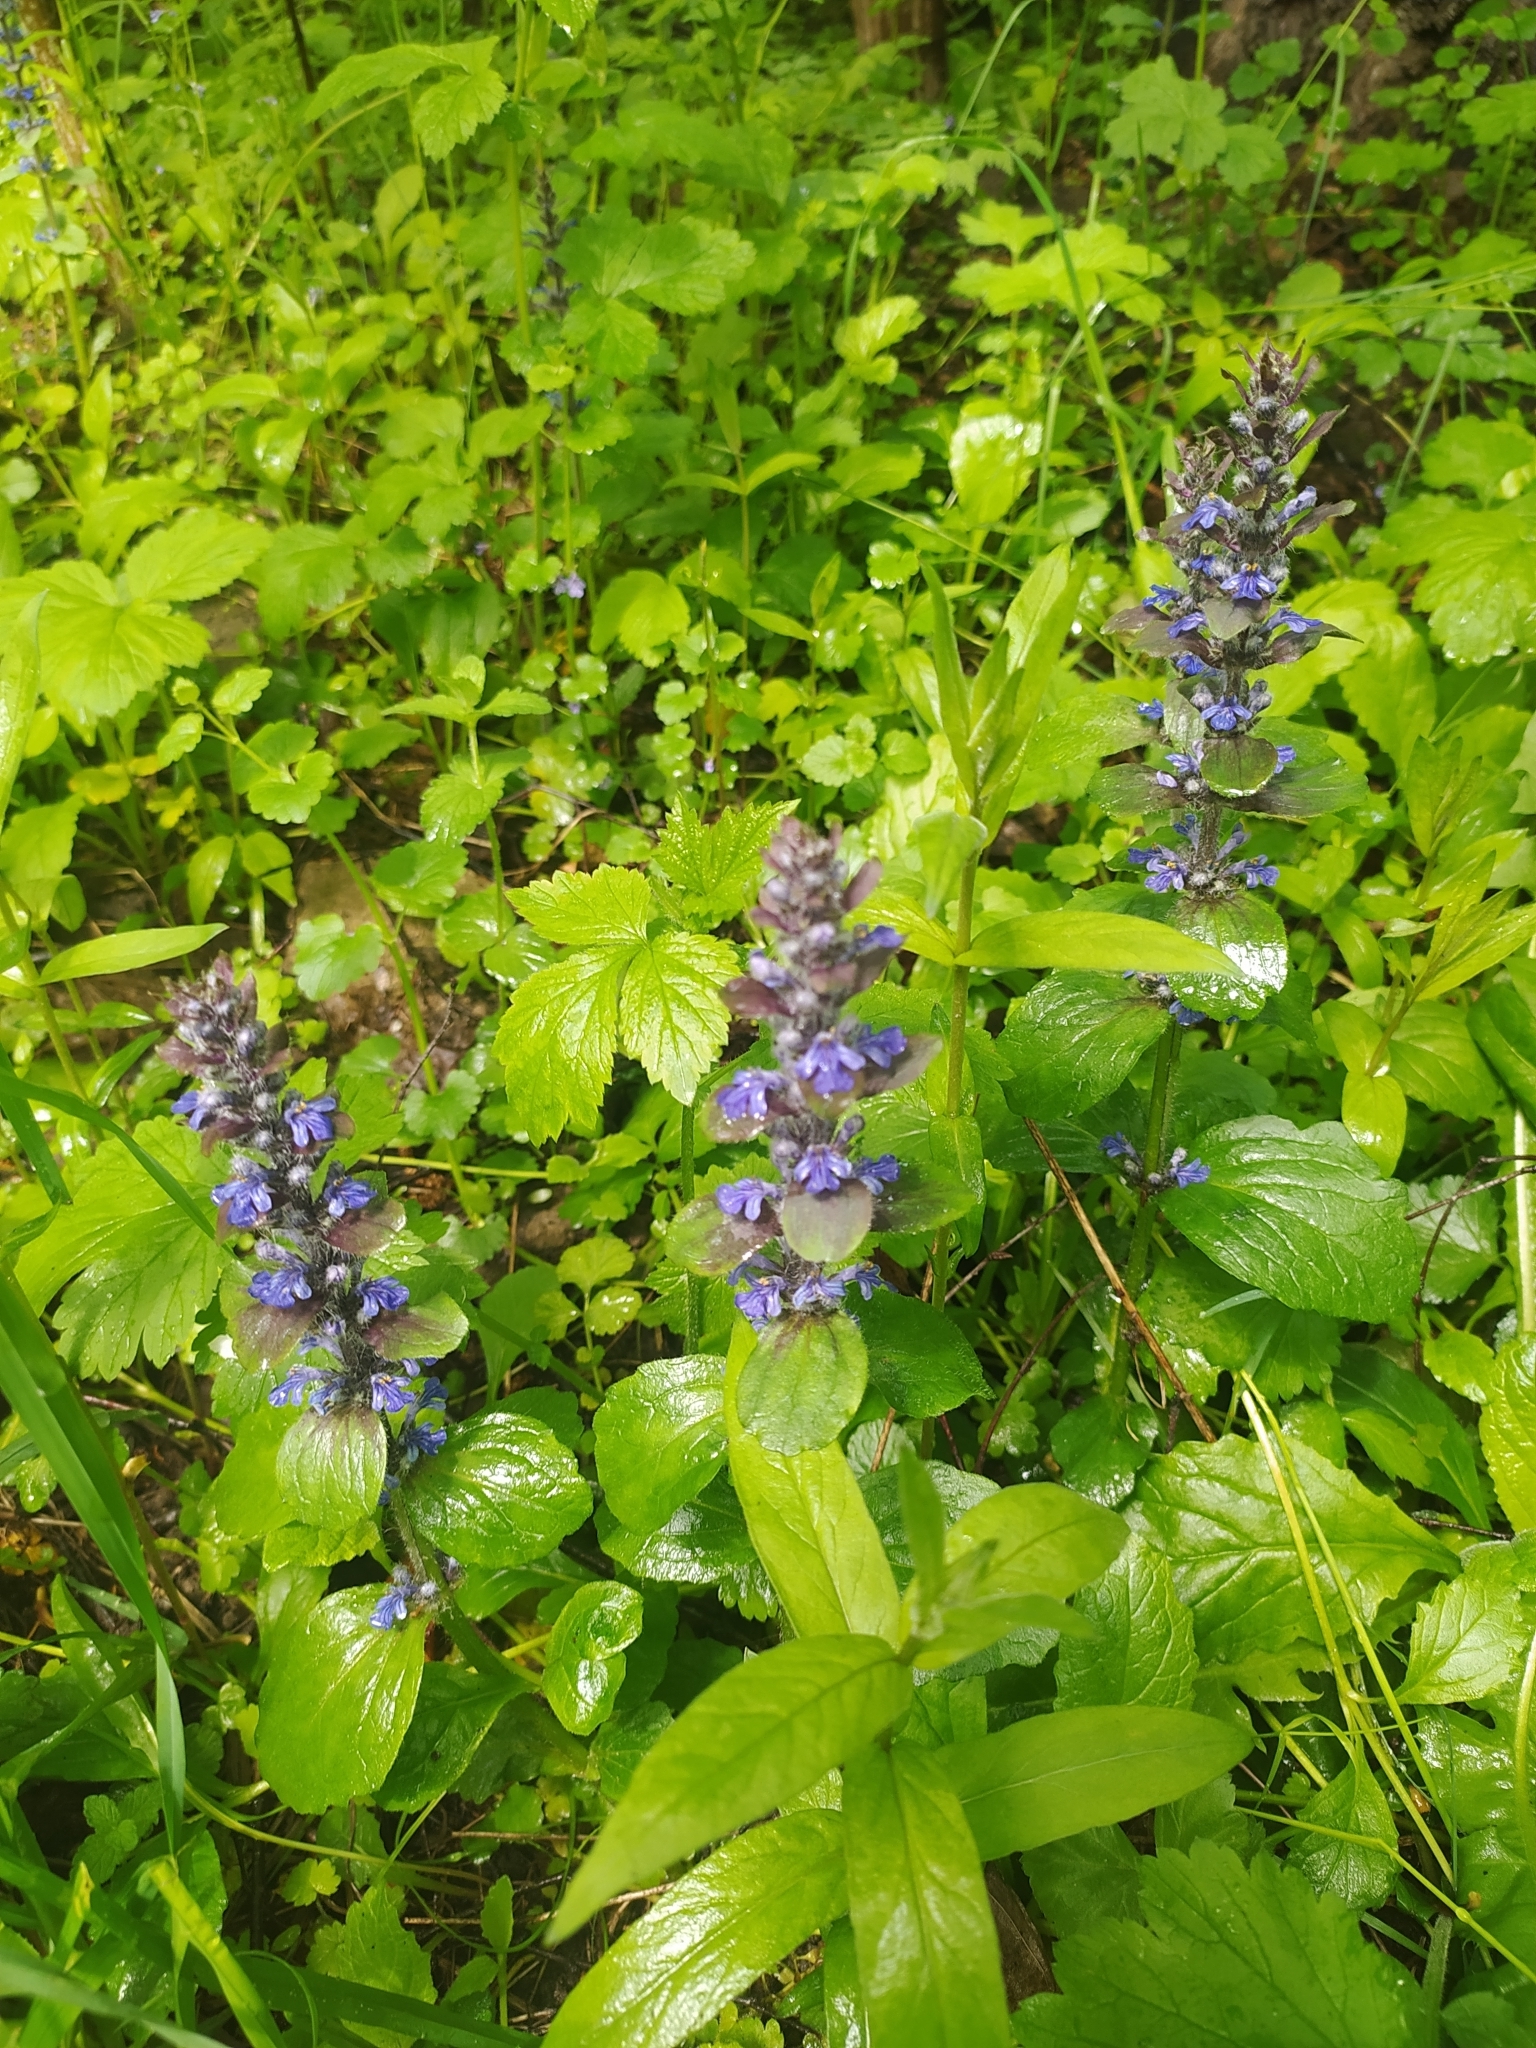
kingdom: Plantae
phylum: Tracheophyta
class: Magnoliopsida
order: Lamiales
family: Lamiaceae
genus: Ajuga
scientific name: Ajuga reptans
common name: Bugle
